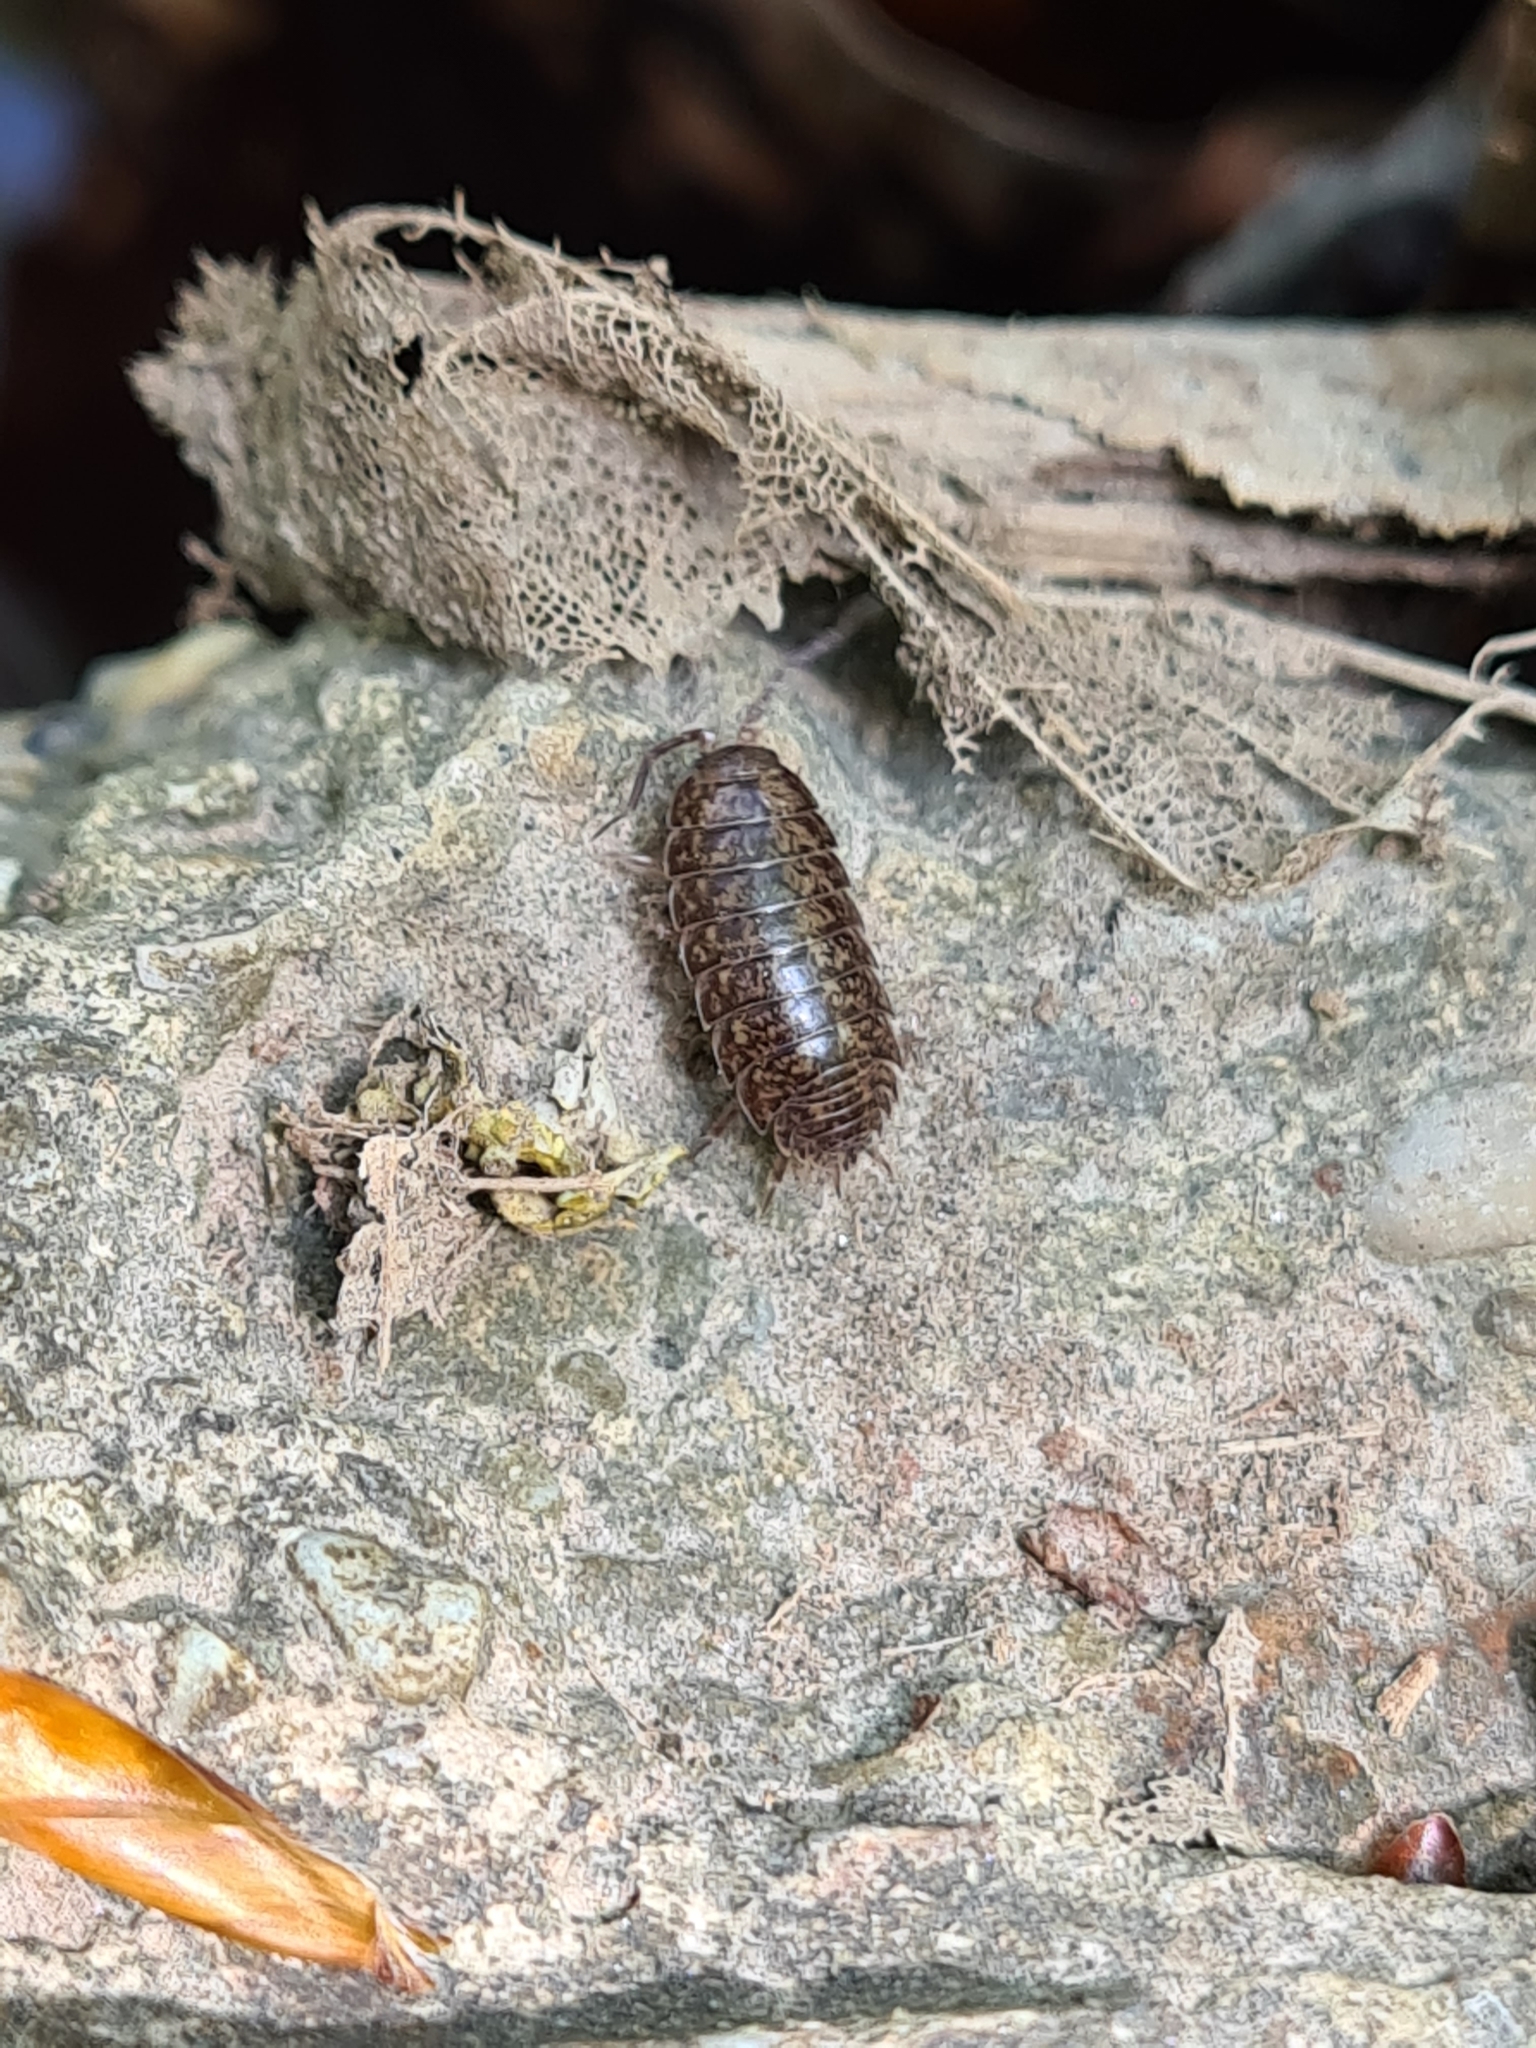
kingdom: Animalia
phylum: Arthropoda
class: Malacostraca
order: Isopoda
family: Agnaridae
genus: Protracheoniscus
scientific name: Protracheoniscus politus
